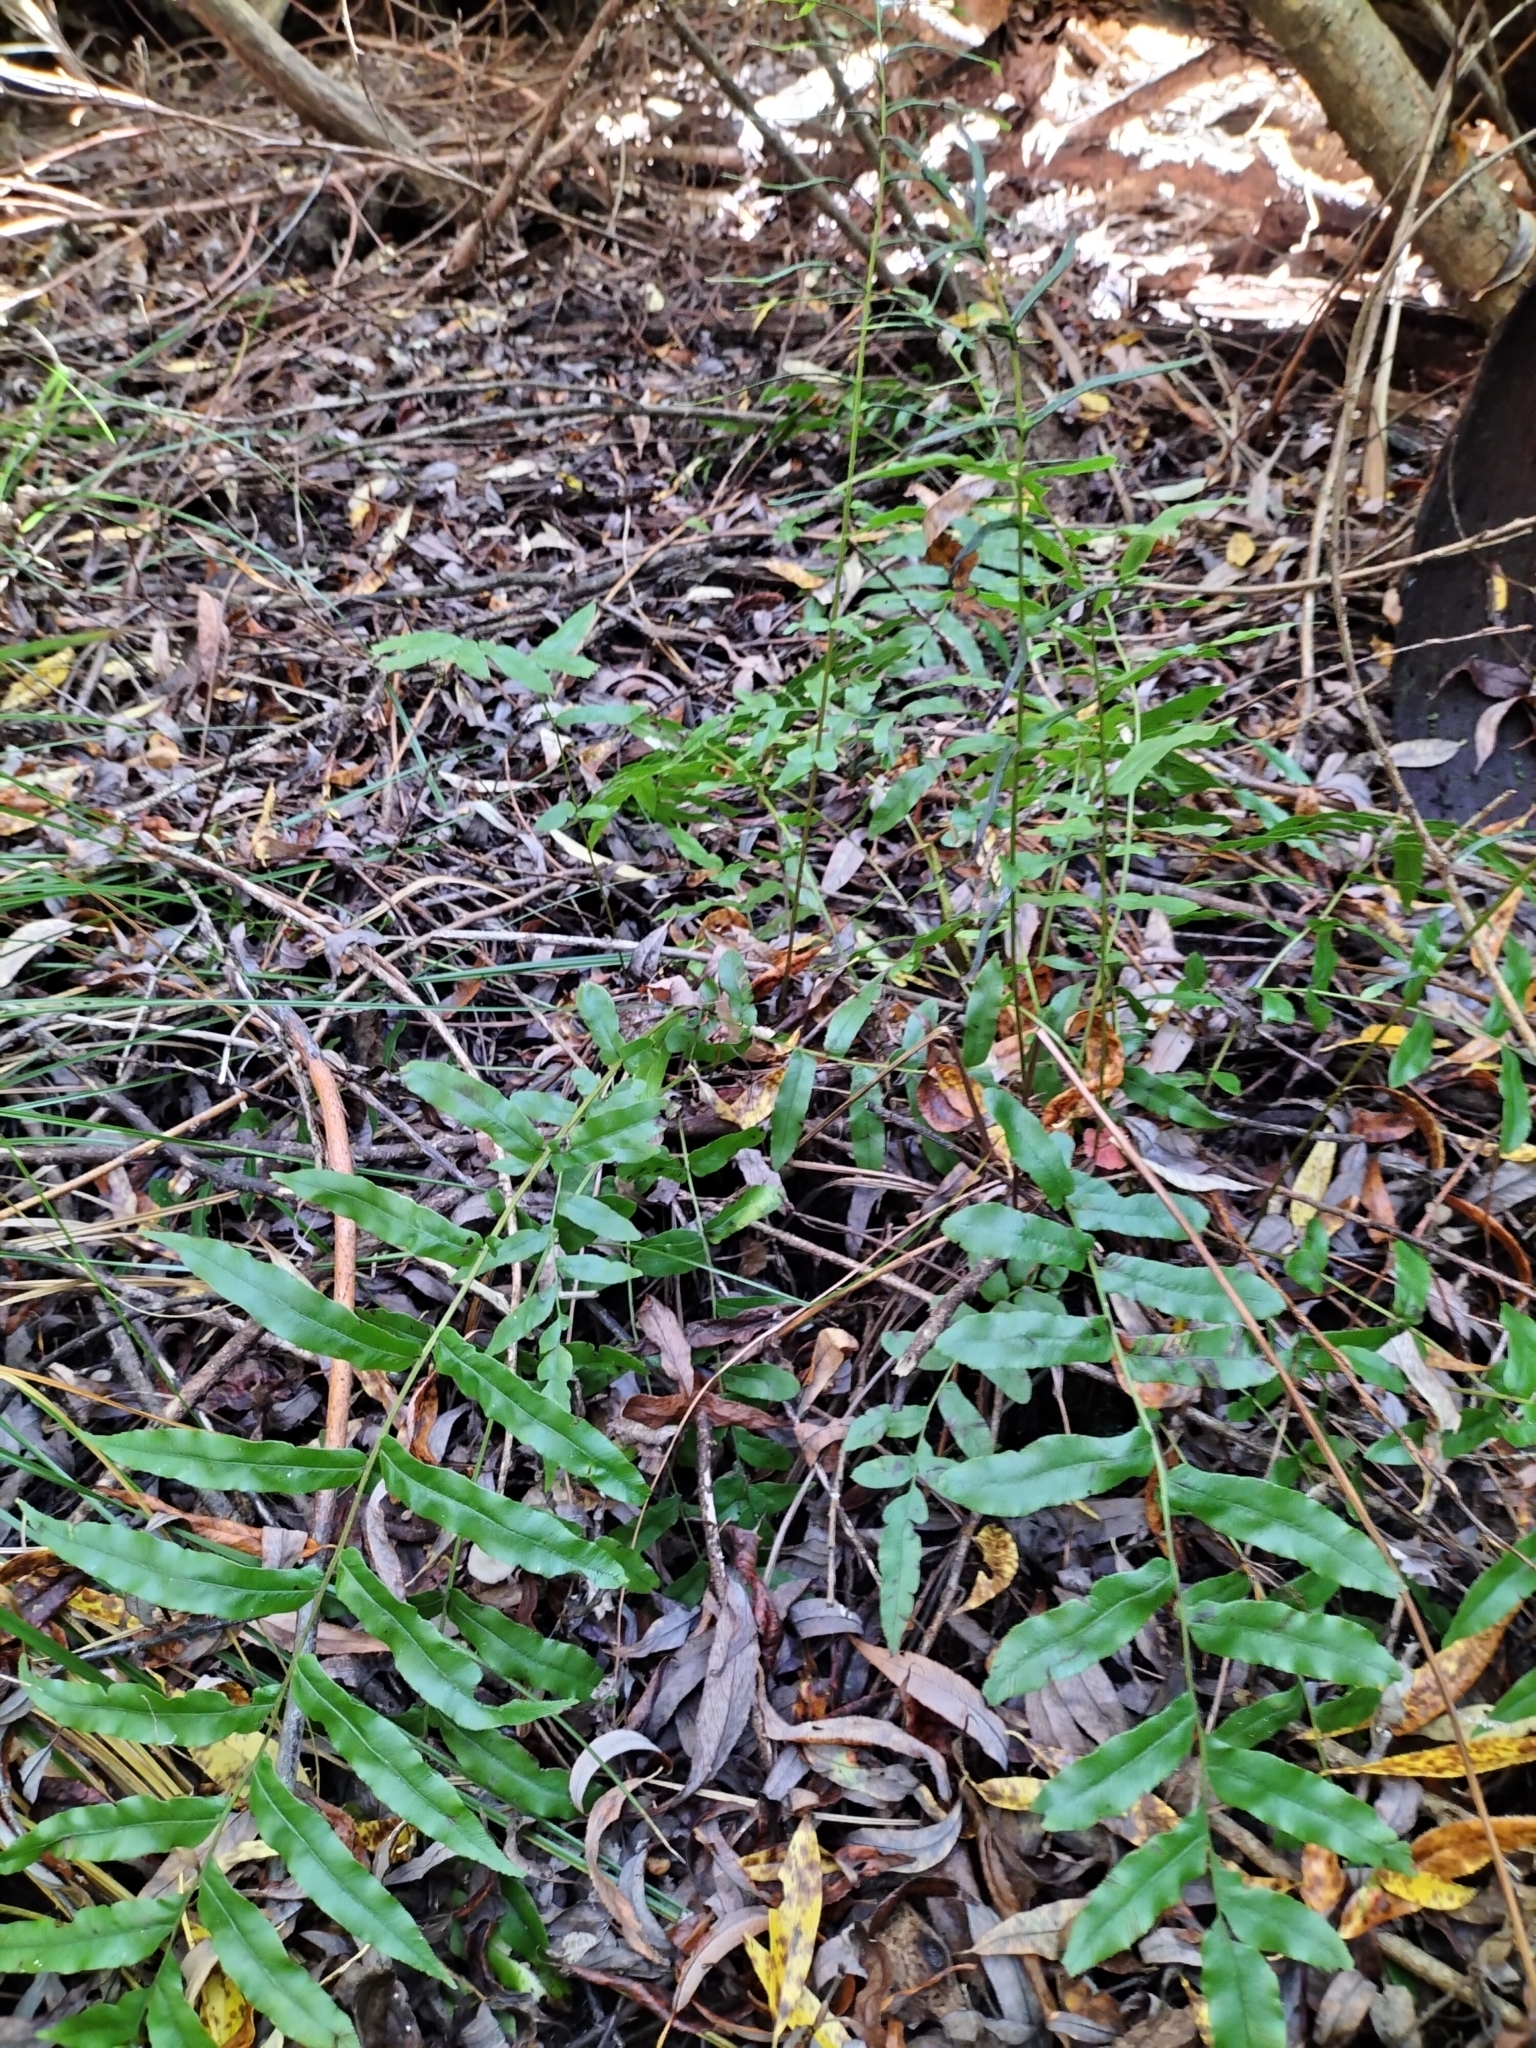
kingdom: Plantae
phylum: Tracheophyta
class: Polypodiopsida
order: Polypodiales
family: Blechnaceae
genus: Parablechnum
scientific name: Parablechnum minus
